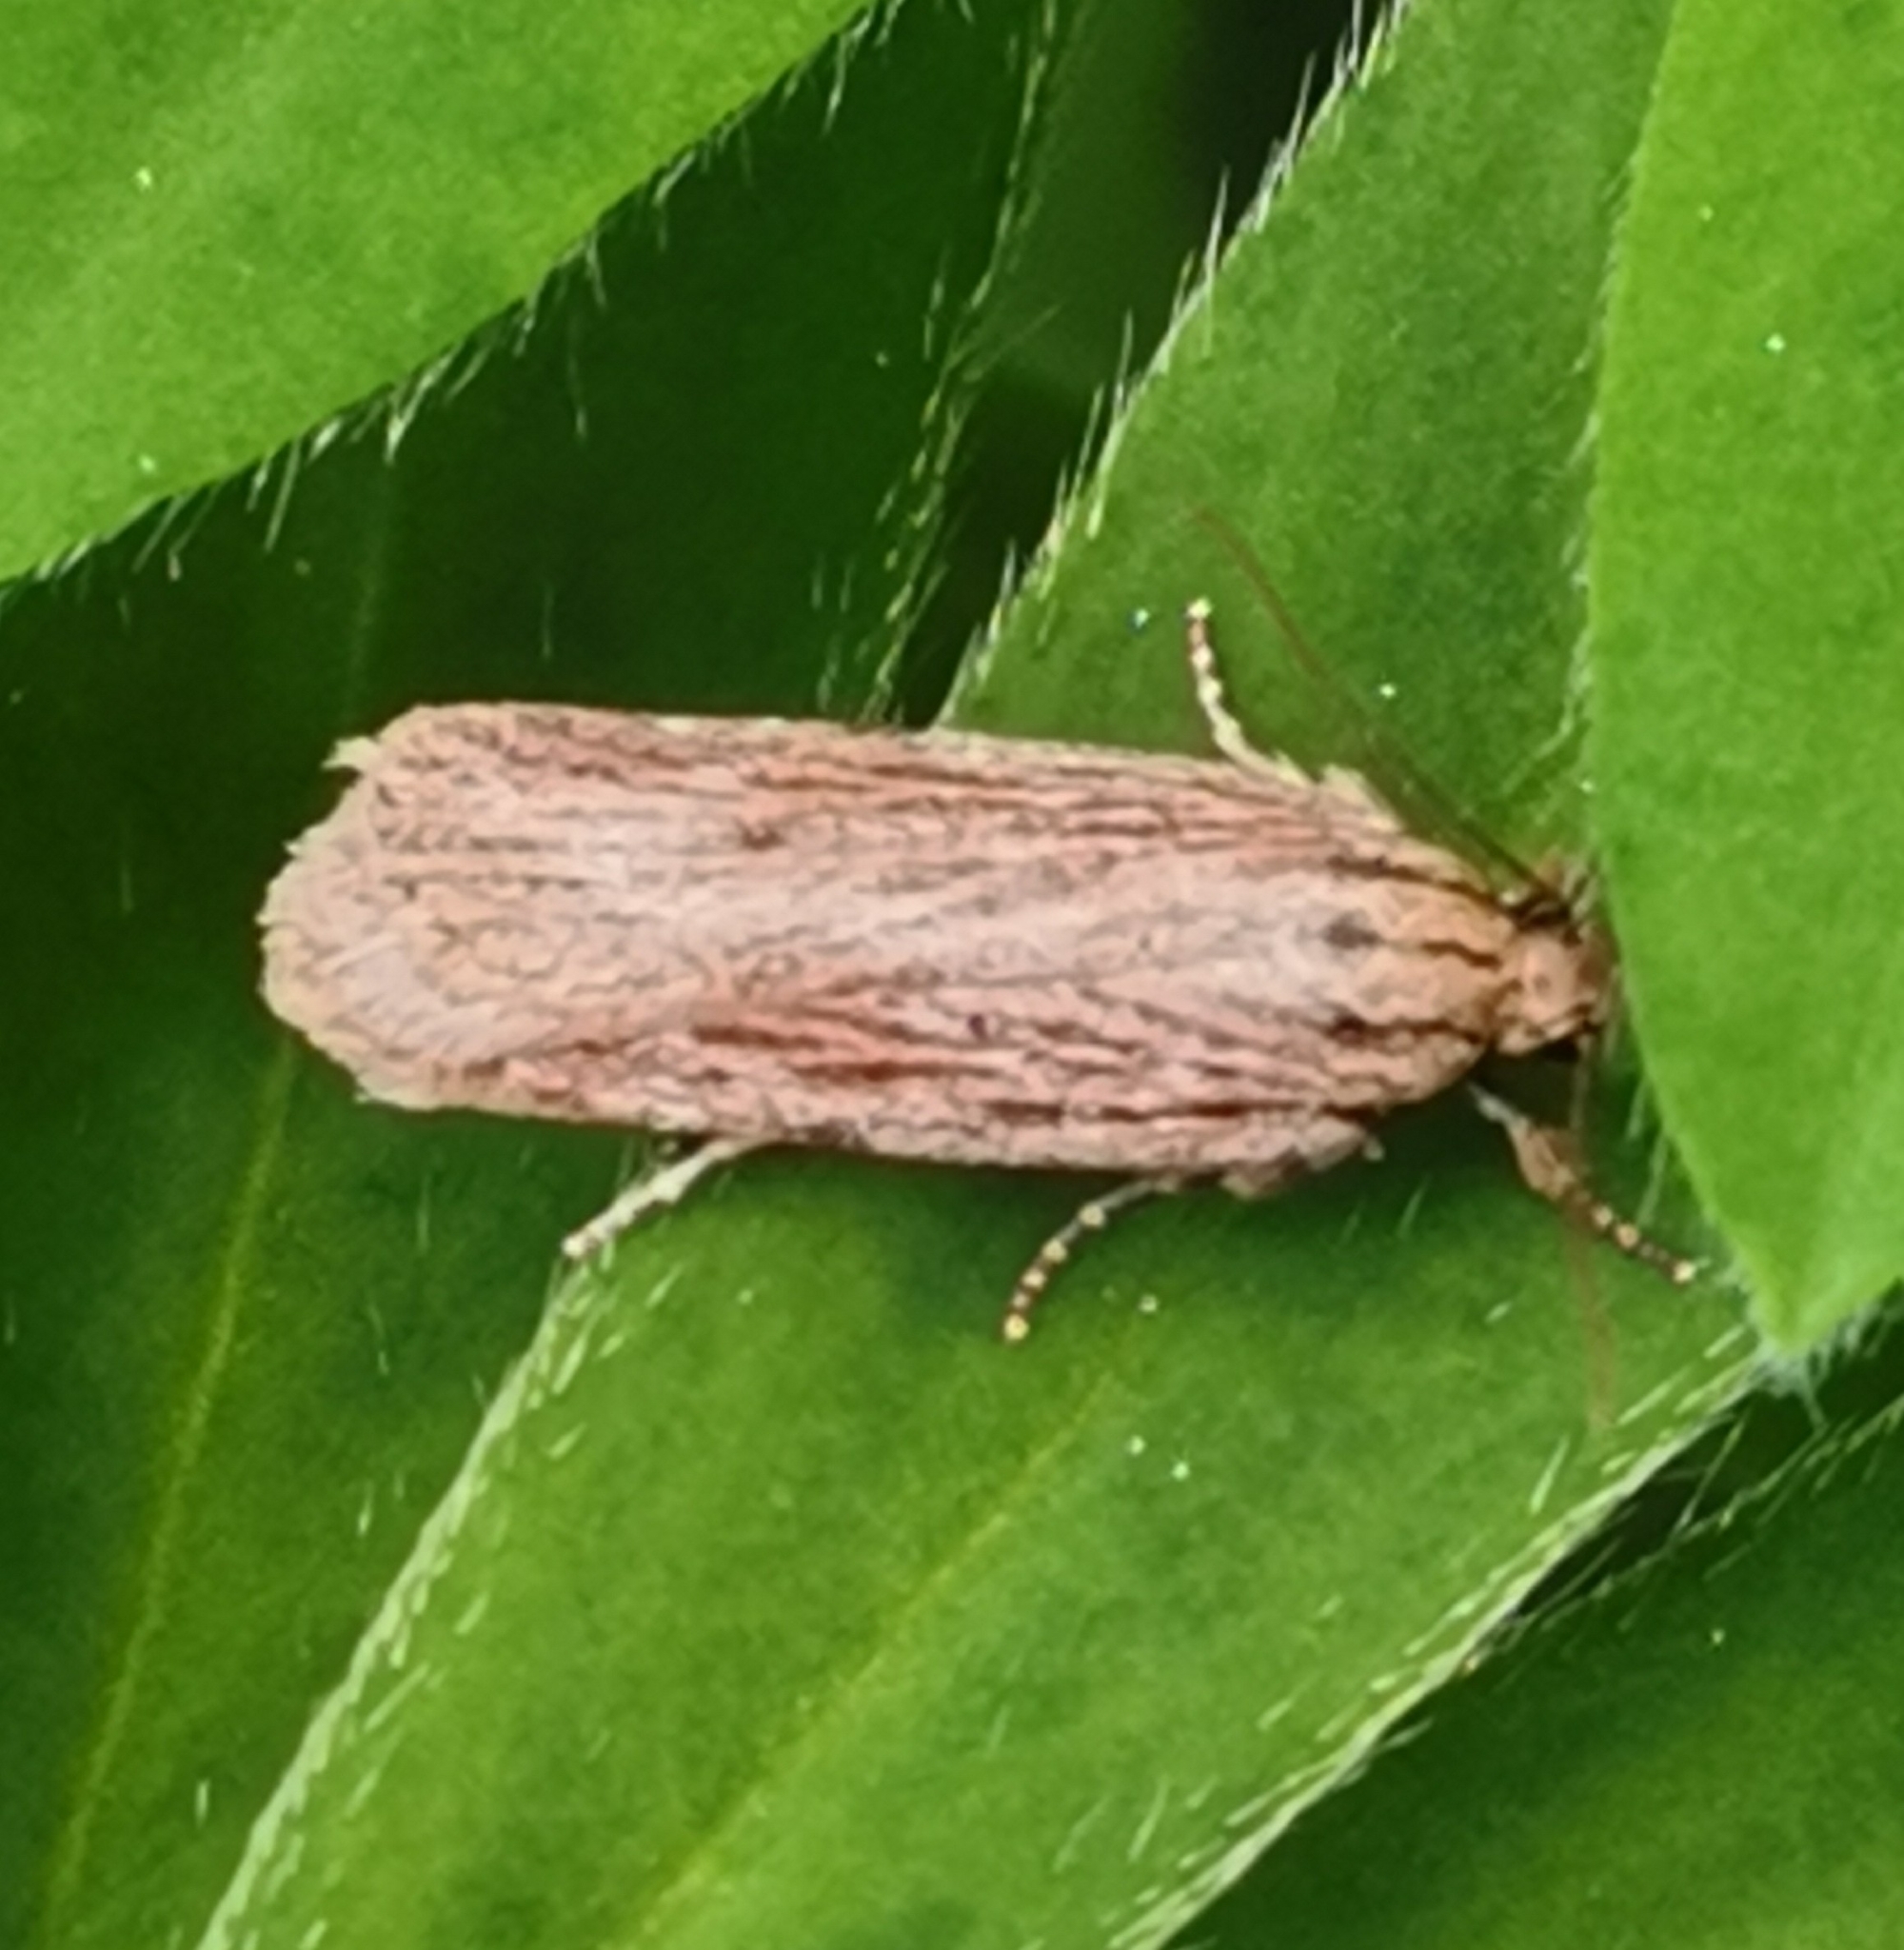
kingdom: Animalia
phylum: Arthropoda
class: Insecta
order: Lepidoptera
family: Depressariidae
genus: Depressaria
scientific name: Depressaria apiella
